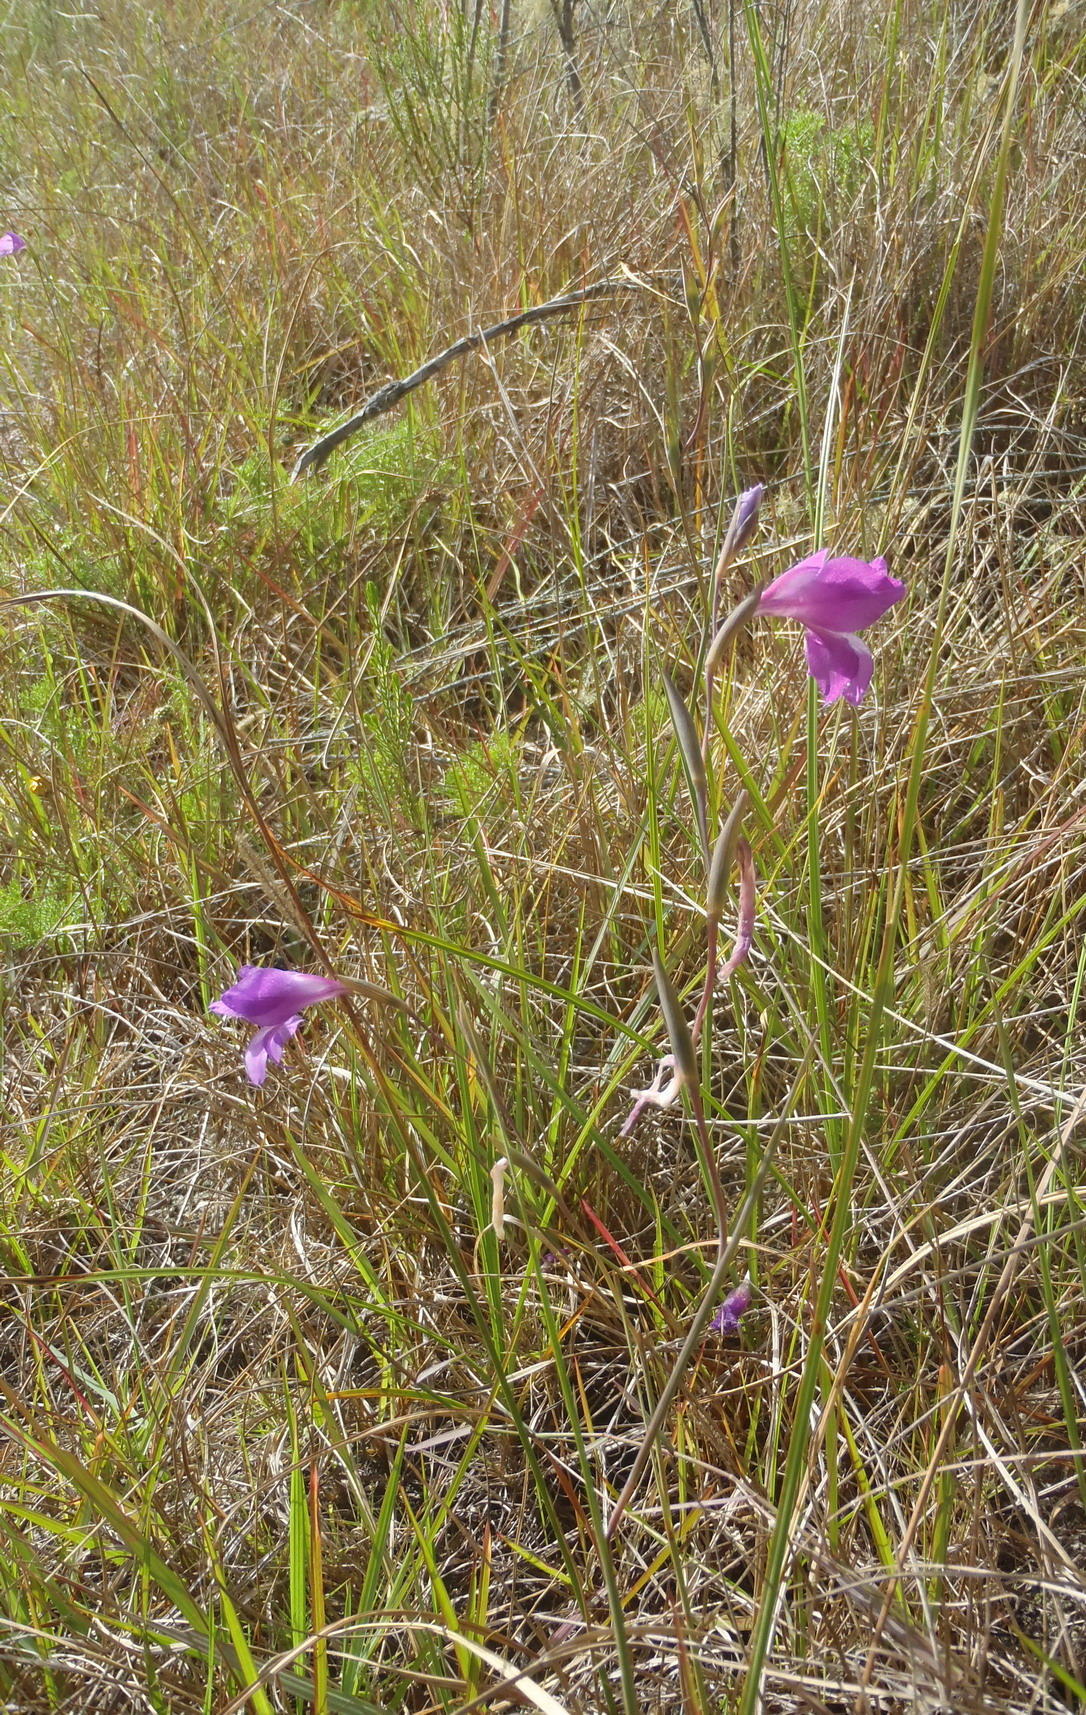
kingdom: Plantae
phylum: Tracheophyta
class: Liliopsida
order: Asparagales
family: Iridaceae
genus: Gladiolus
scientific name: Gladiolus carinatus
